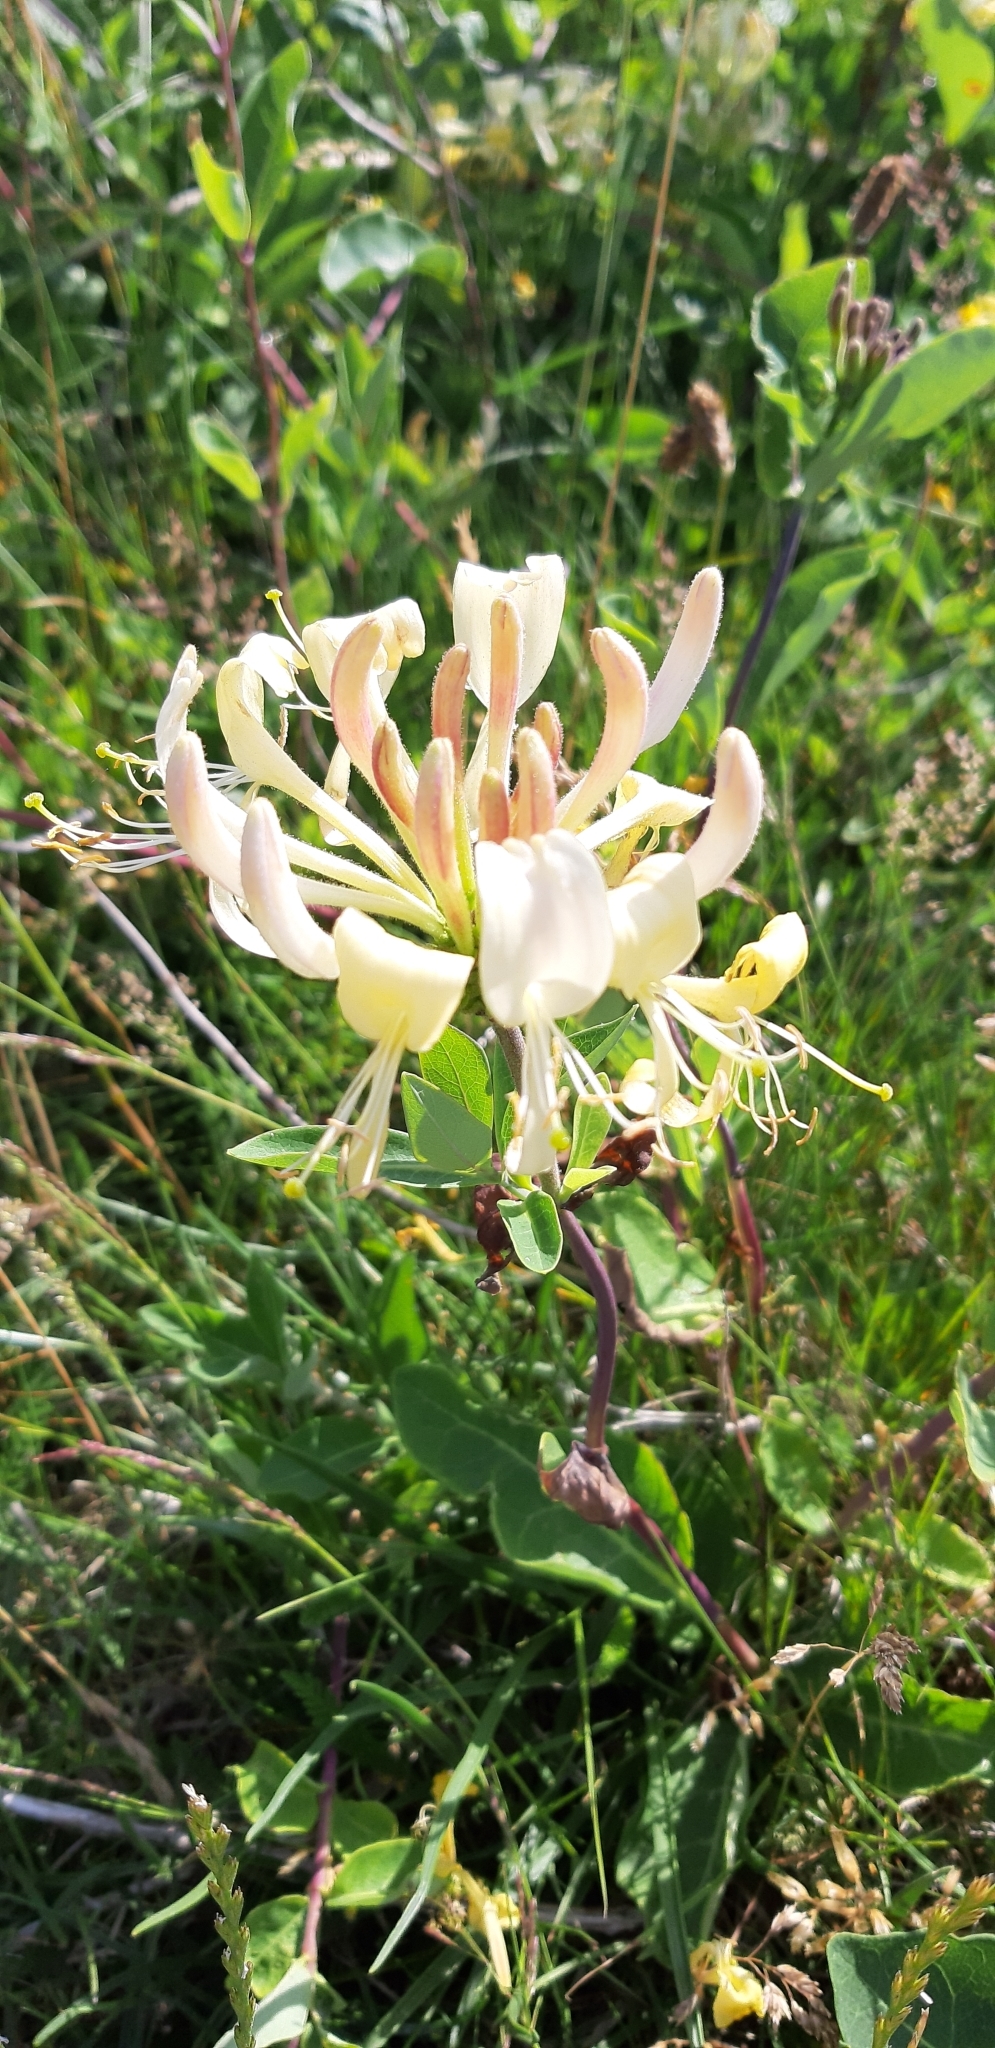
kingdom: Plantae
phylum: Tracheophyta
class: Magnoliopsida
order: Dipsacales
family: Caprifoliaceae
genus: Lonicera
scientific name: Lonicera periclymenum
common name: European honeysuckle
